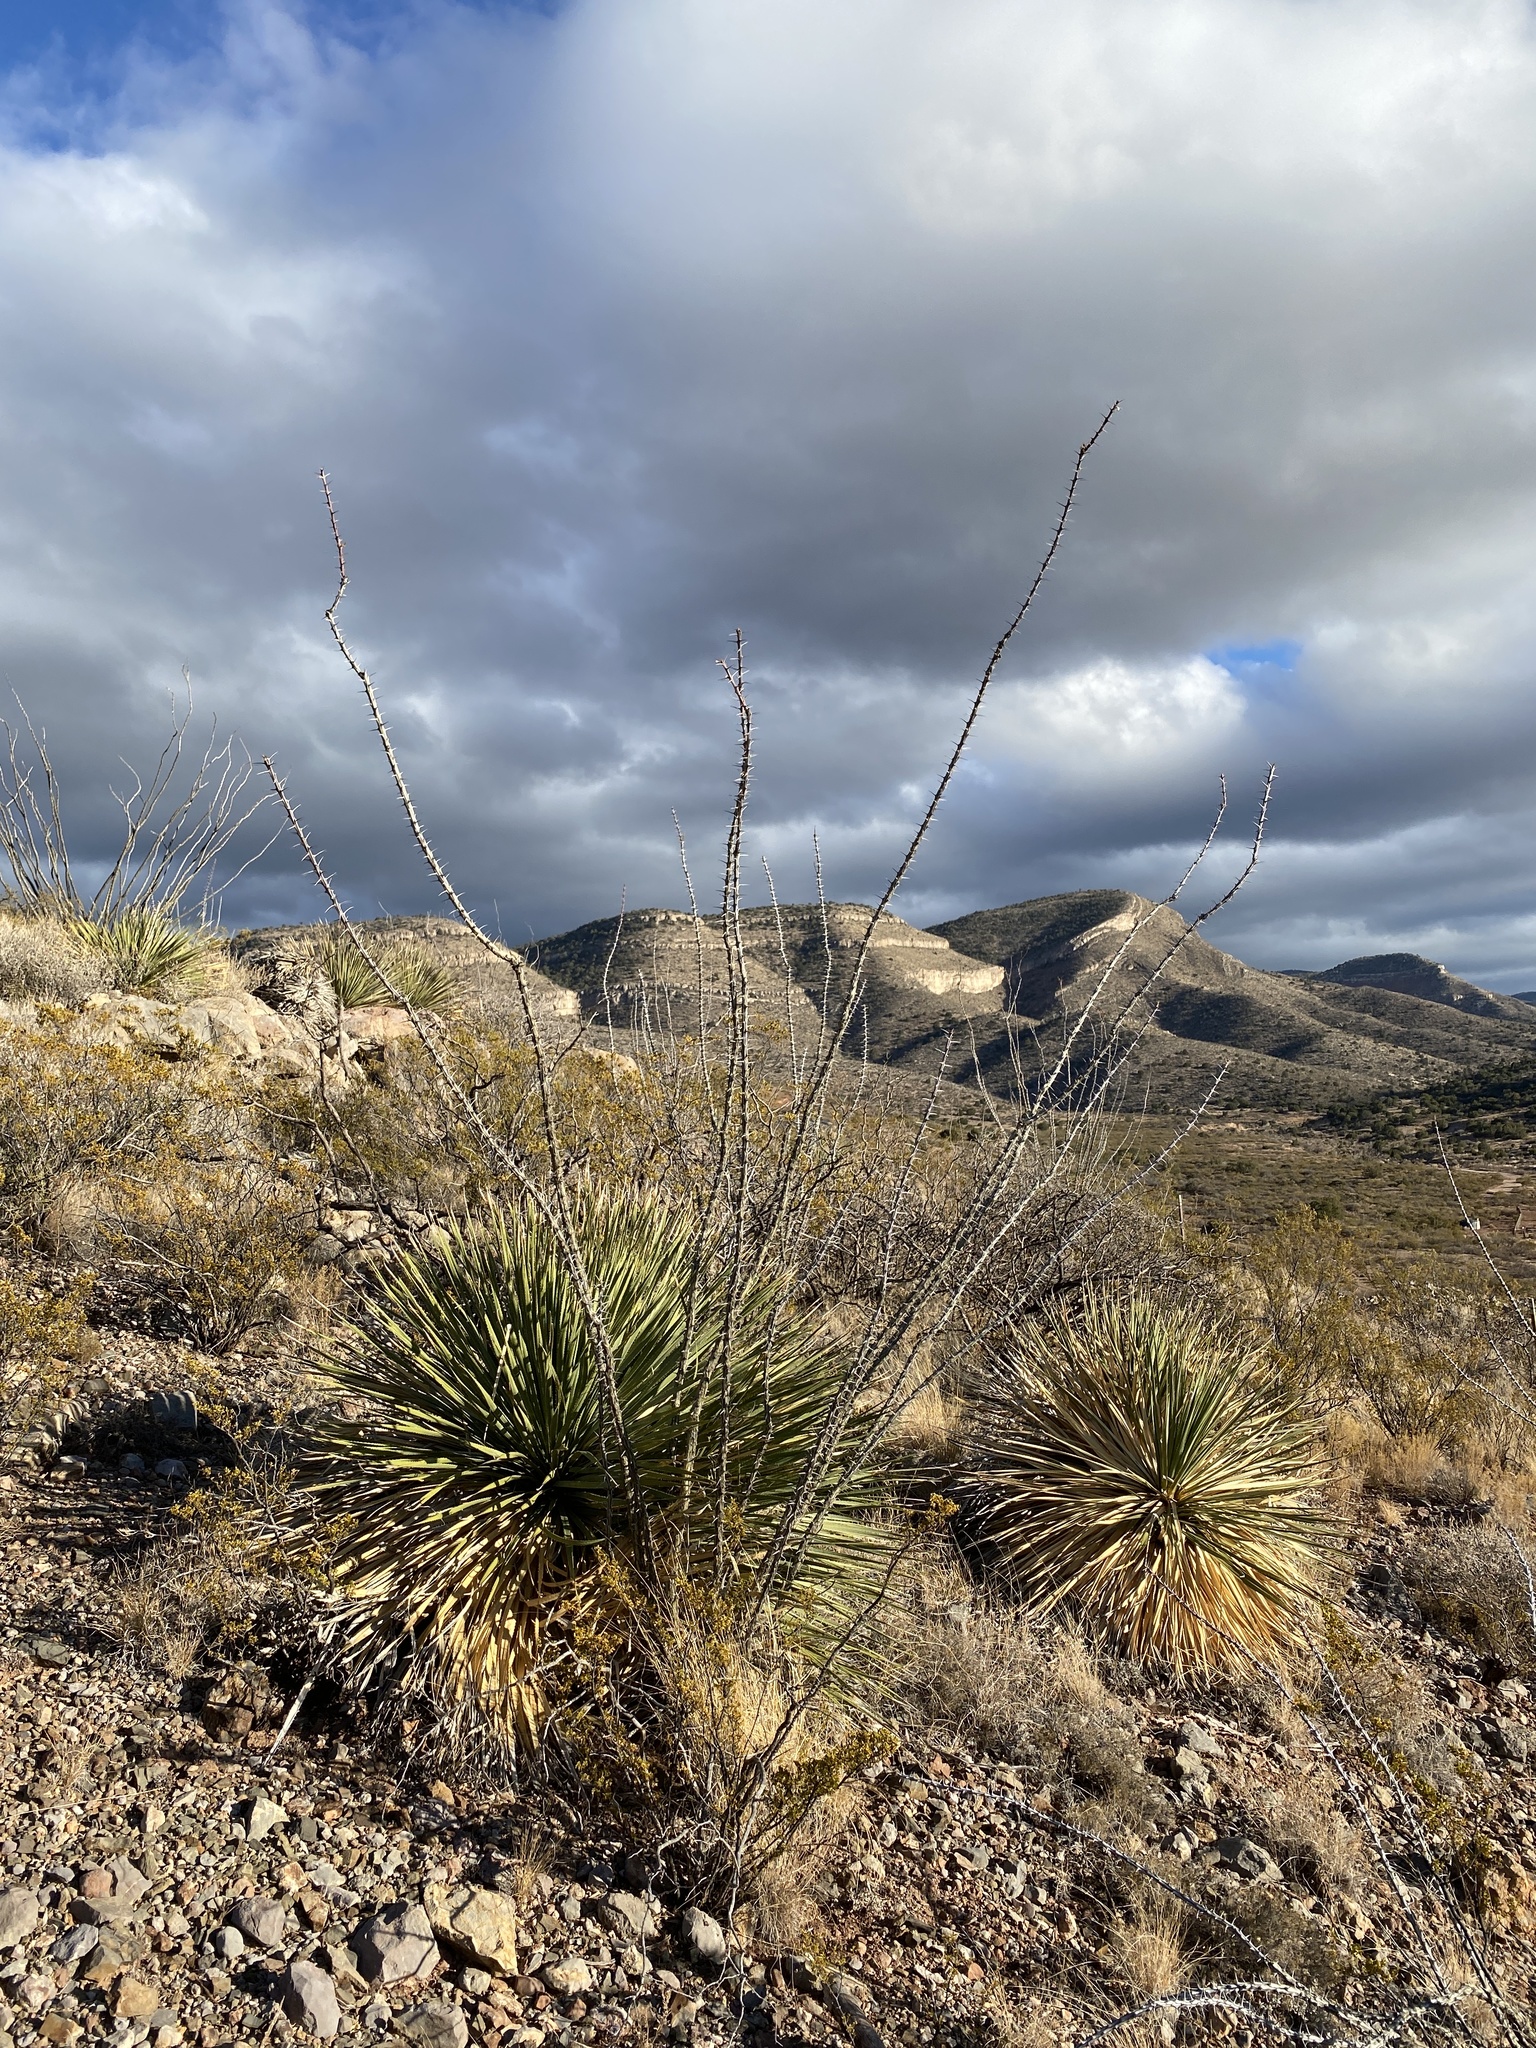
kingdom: Plantae
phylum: Tracheophyta
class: Liliopsida
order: Asparagales
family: Asparagaceae
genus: Dasylirion
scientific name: Dasylirion wheeleri
